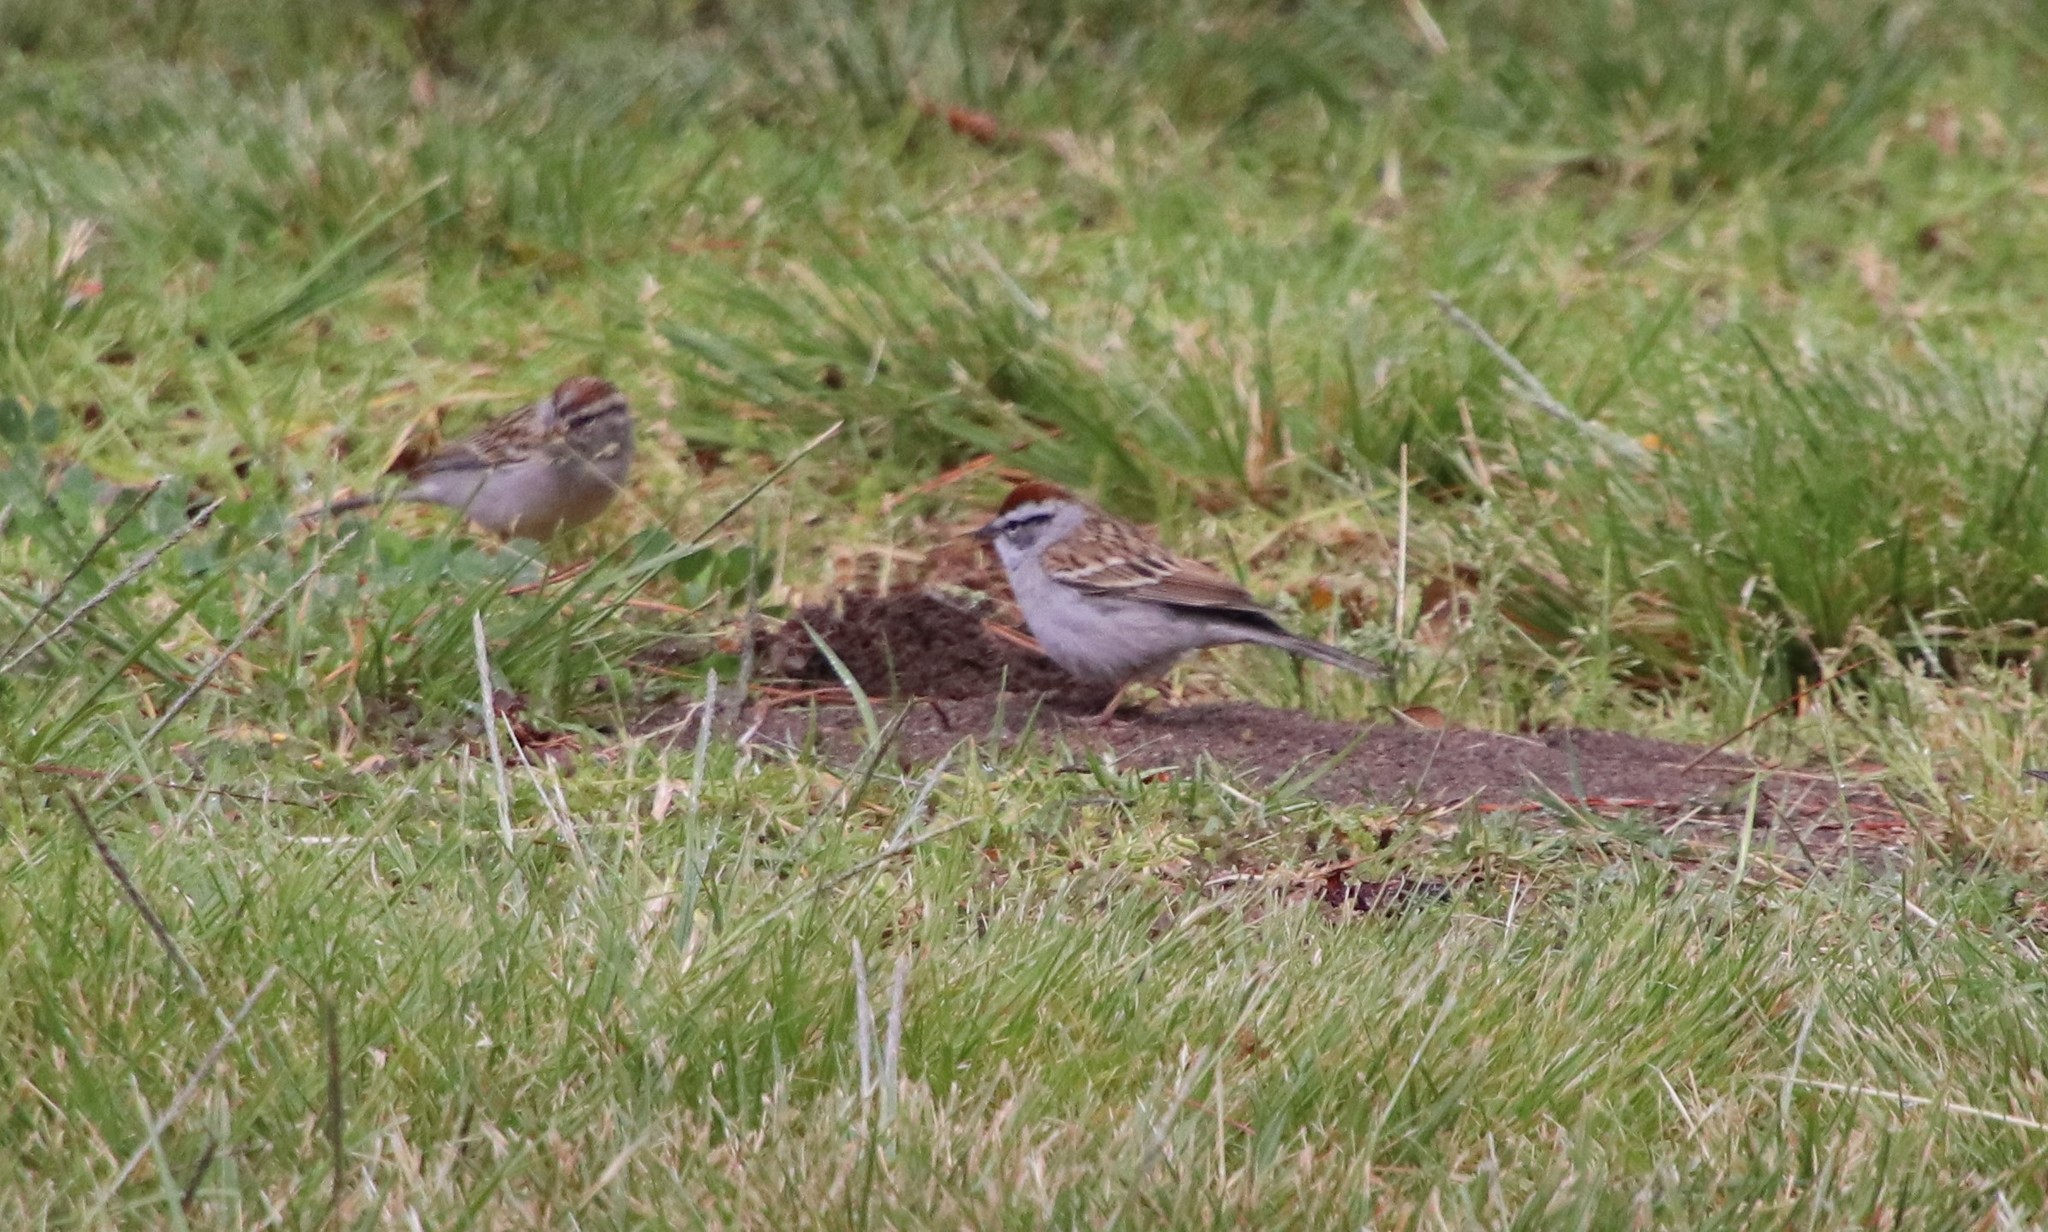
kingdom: Animalia
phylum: Chordata
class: Aves
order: Passeriformes
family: Passerellidae
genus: Spizella
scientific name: Spizella passerina
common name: Chipping sparrow
